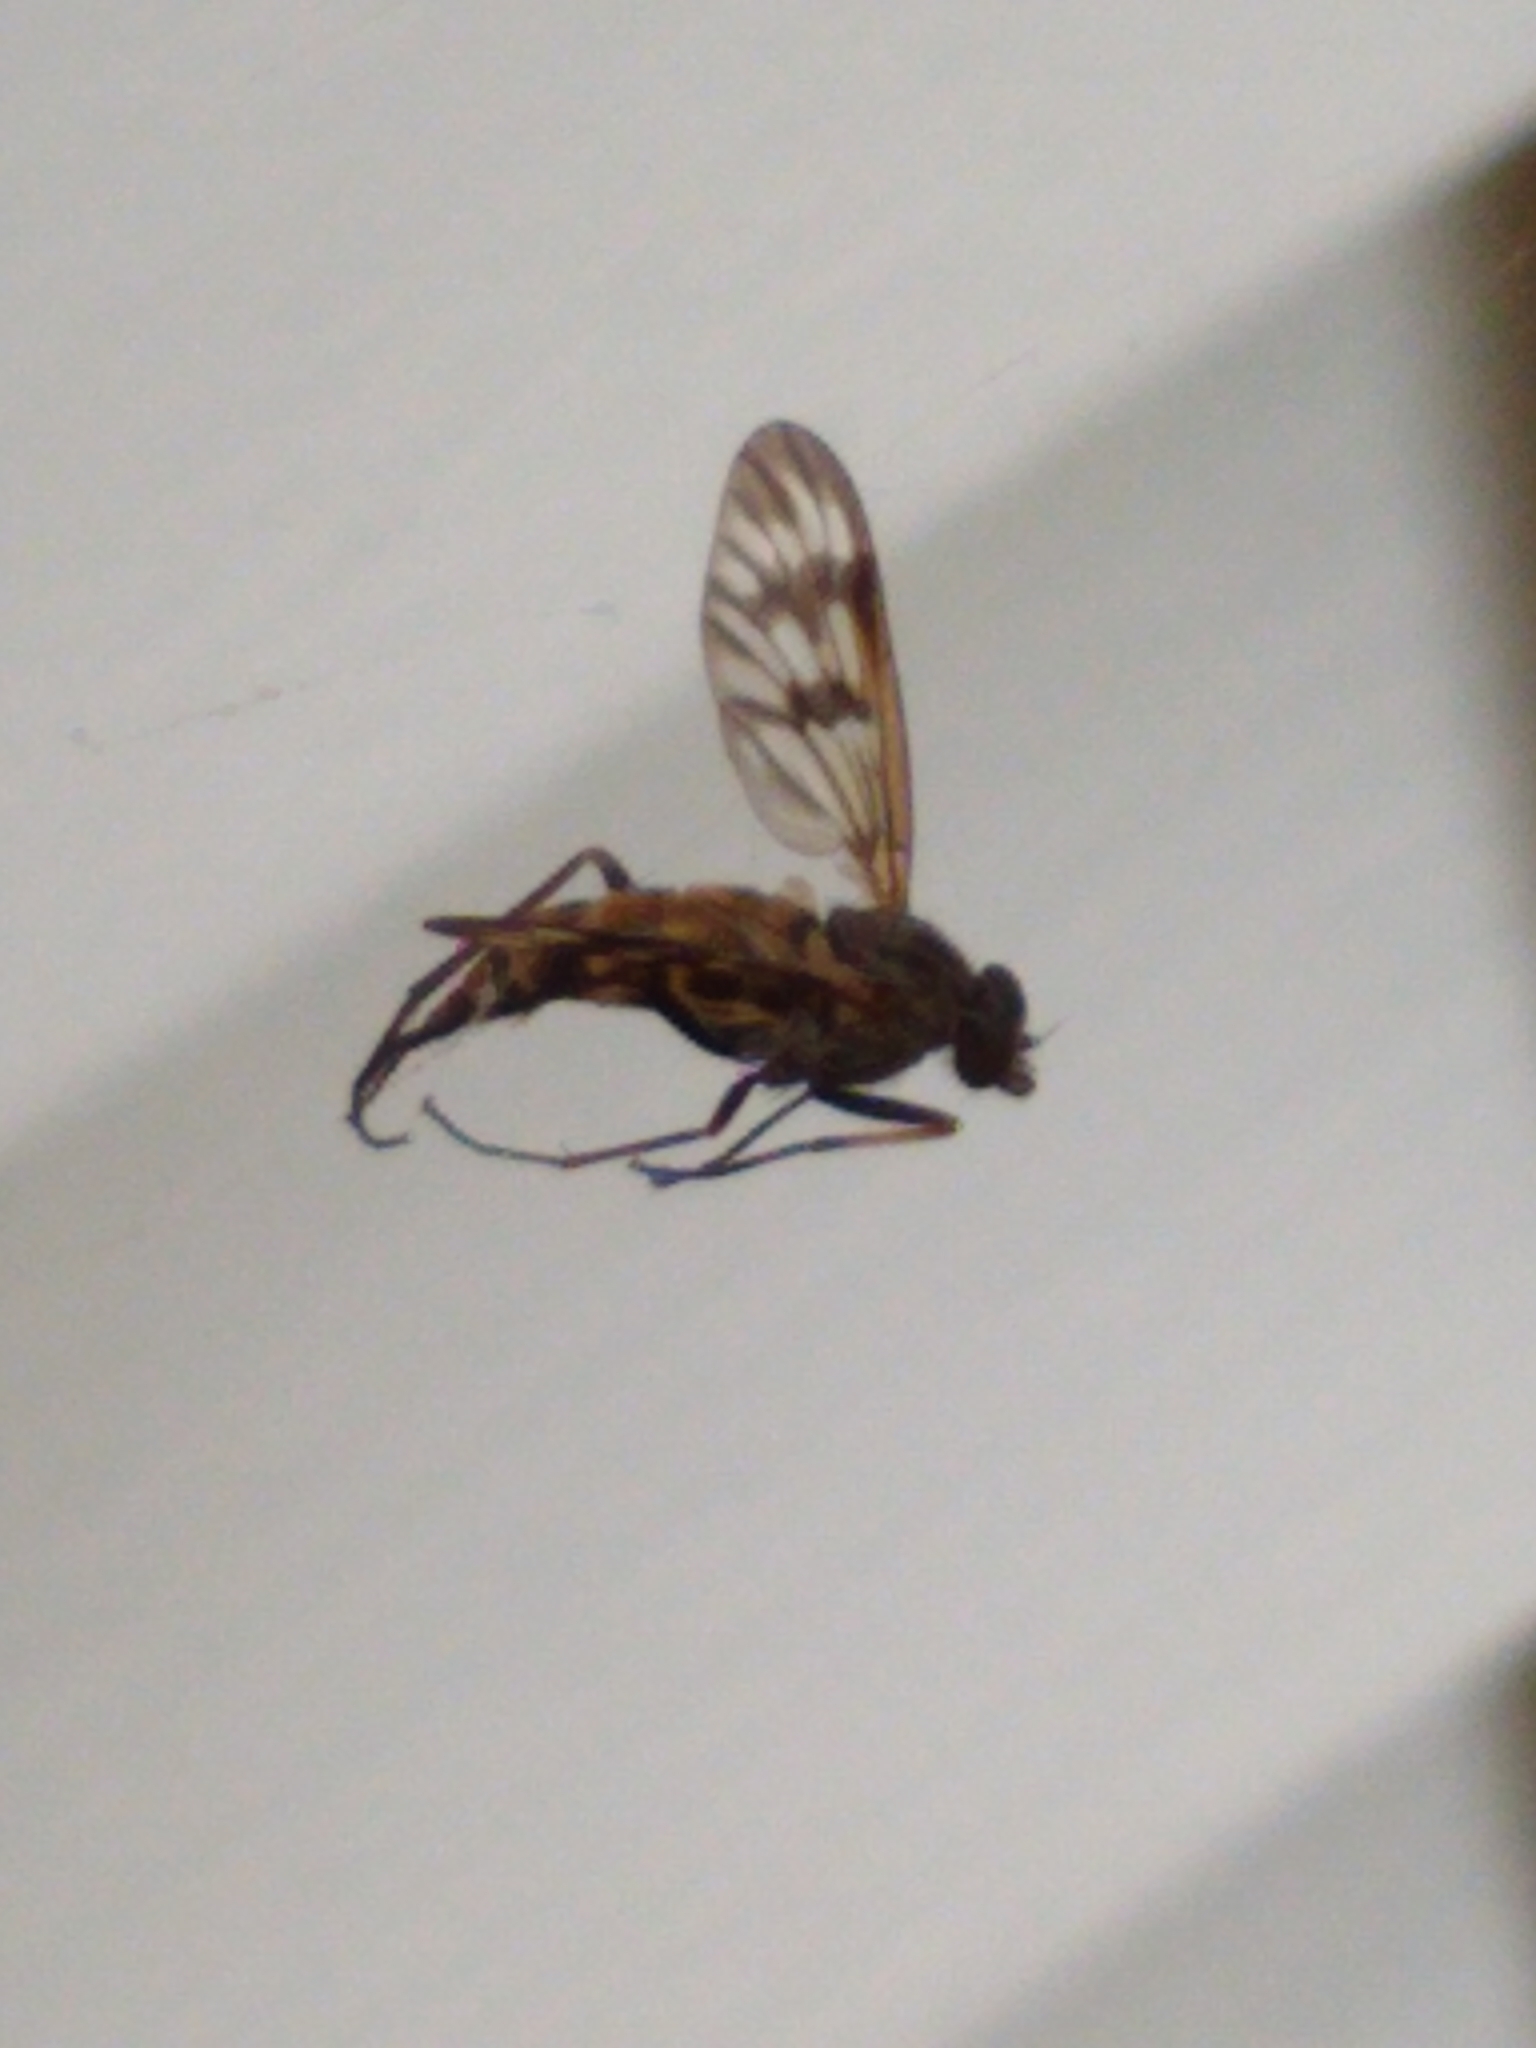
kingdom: Animalia
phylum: Arthropoda
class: Insecta
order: Diptera
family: Rhagionidae
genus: Rhagio
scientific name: Rhagio mystaceus
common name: Common snipe fly
